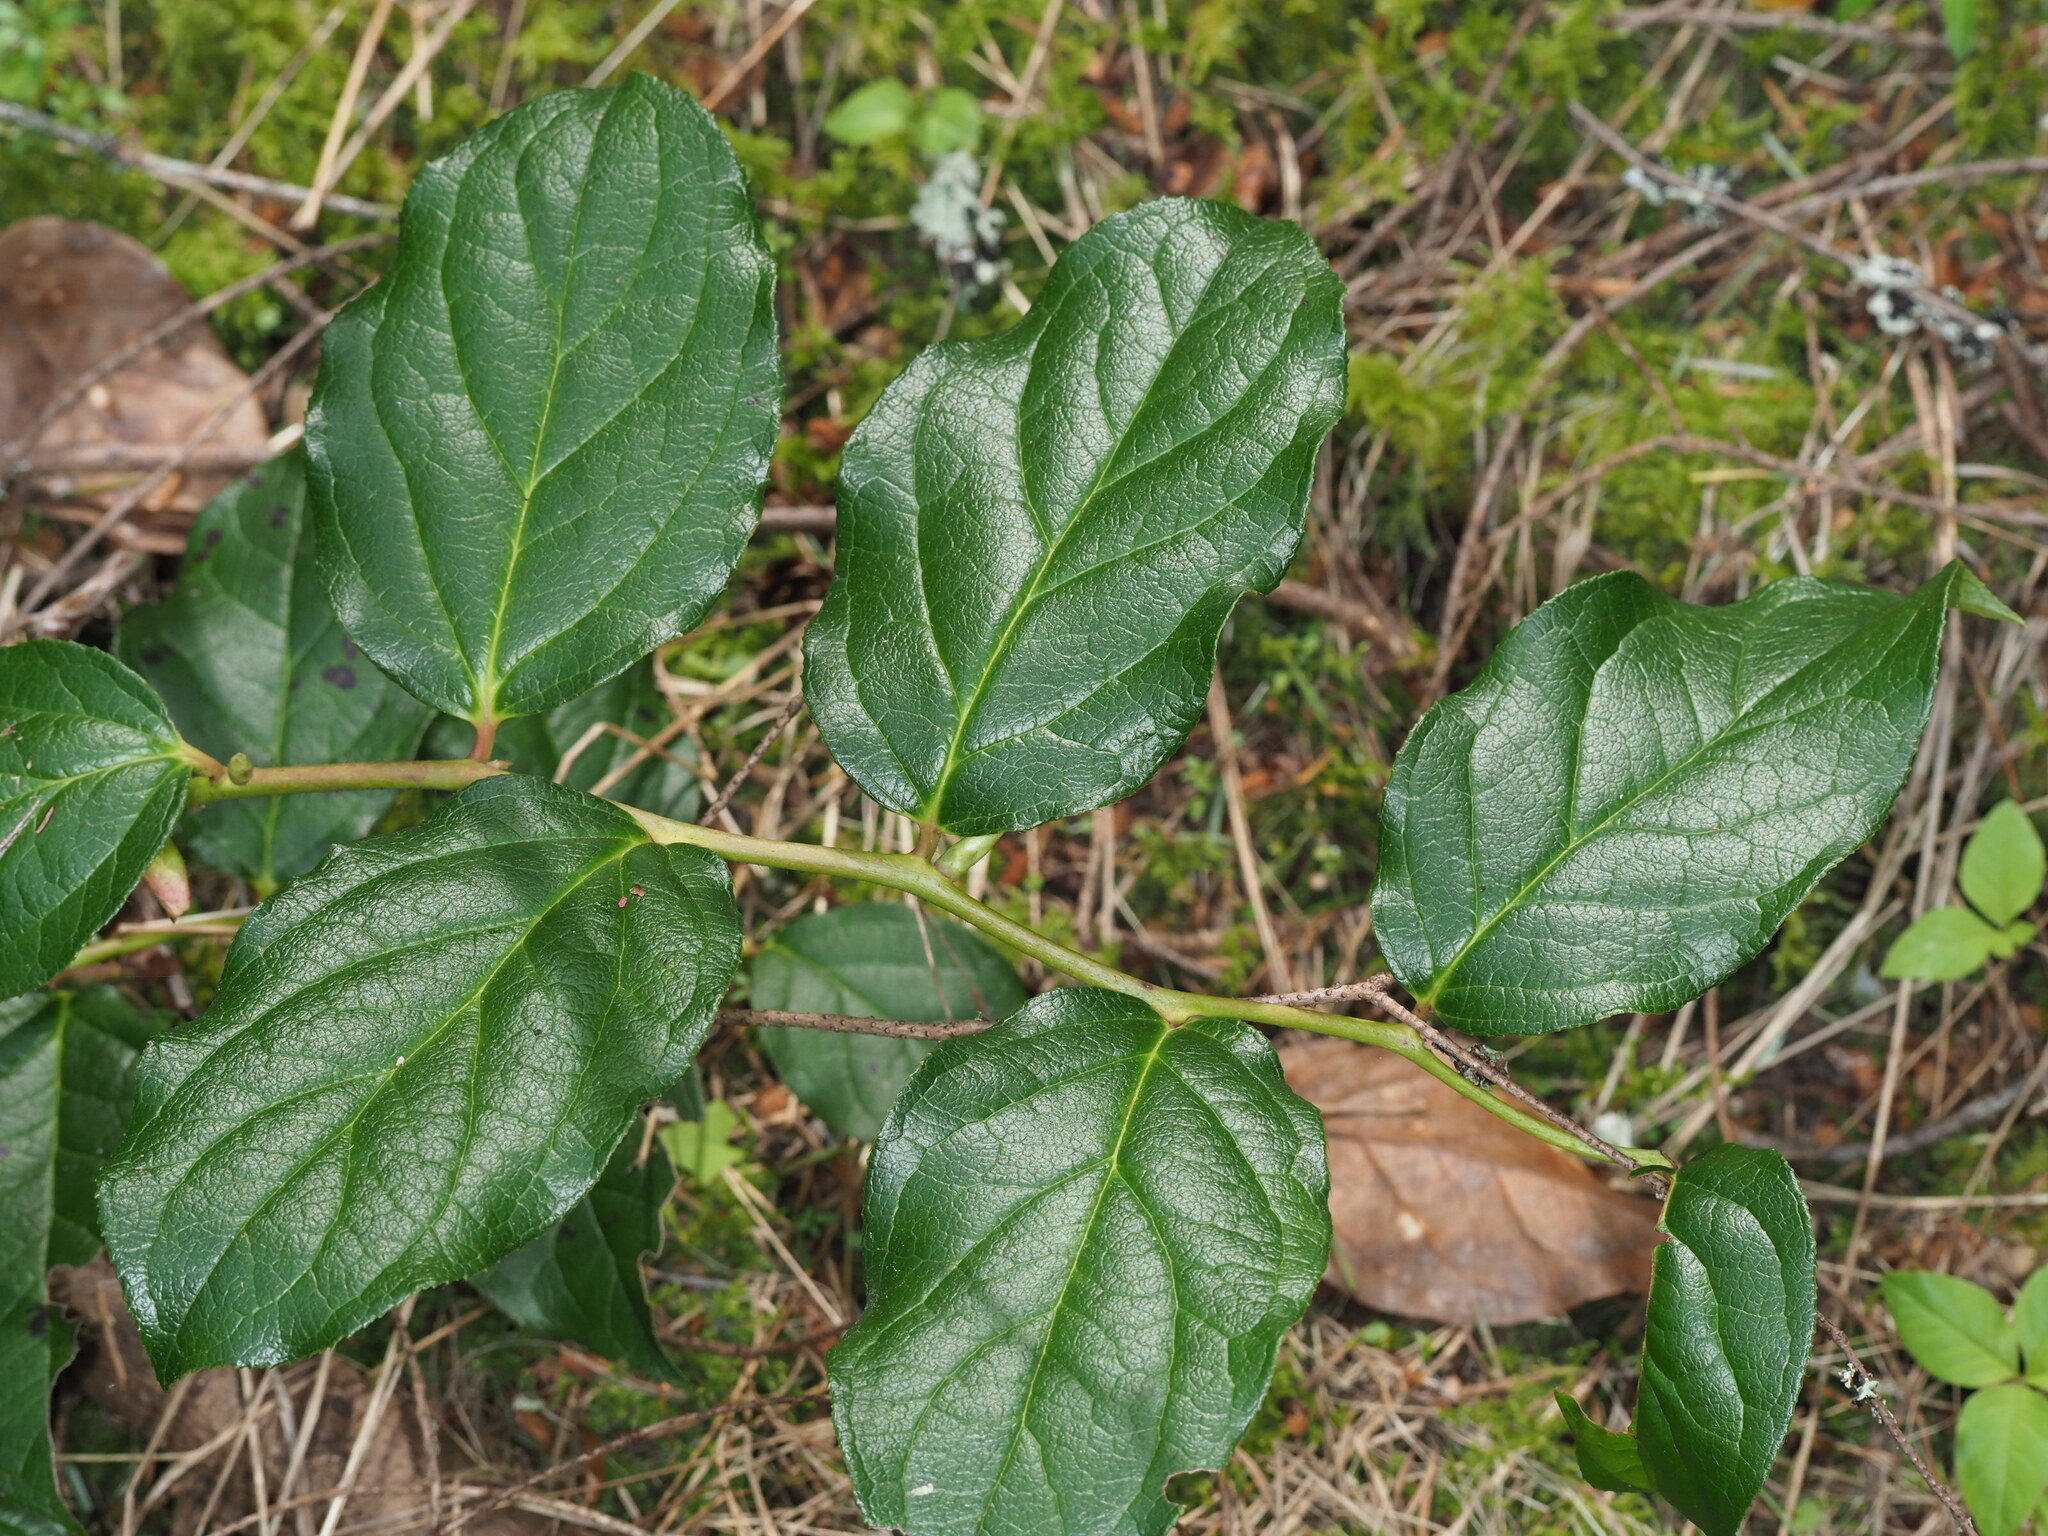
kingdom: Plantae
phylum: Tracheophyta
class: Magnoliopsida
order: Ericales
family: Ericaceae
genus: Gaultheria
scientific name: Gaultheria shallon
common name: Shallon
